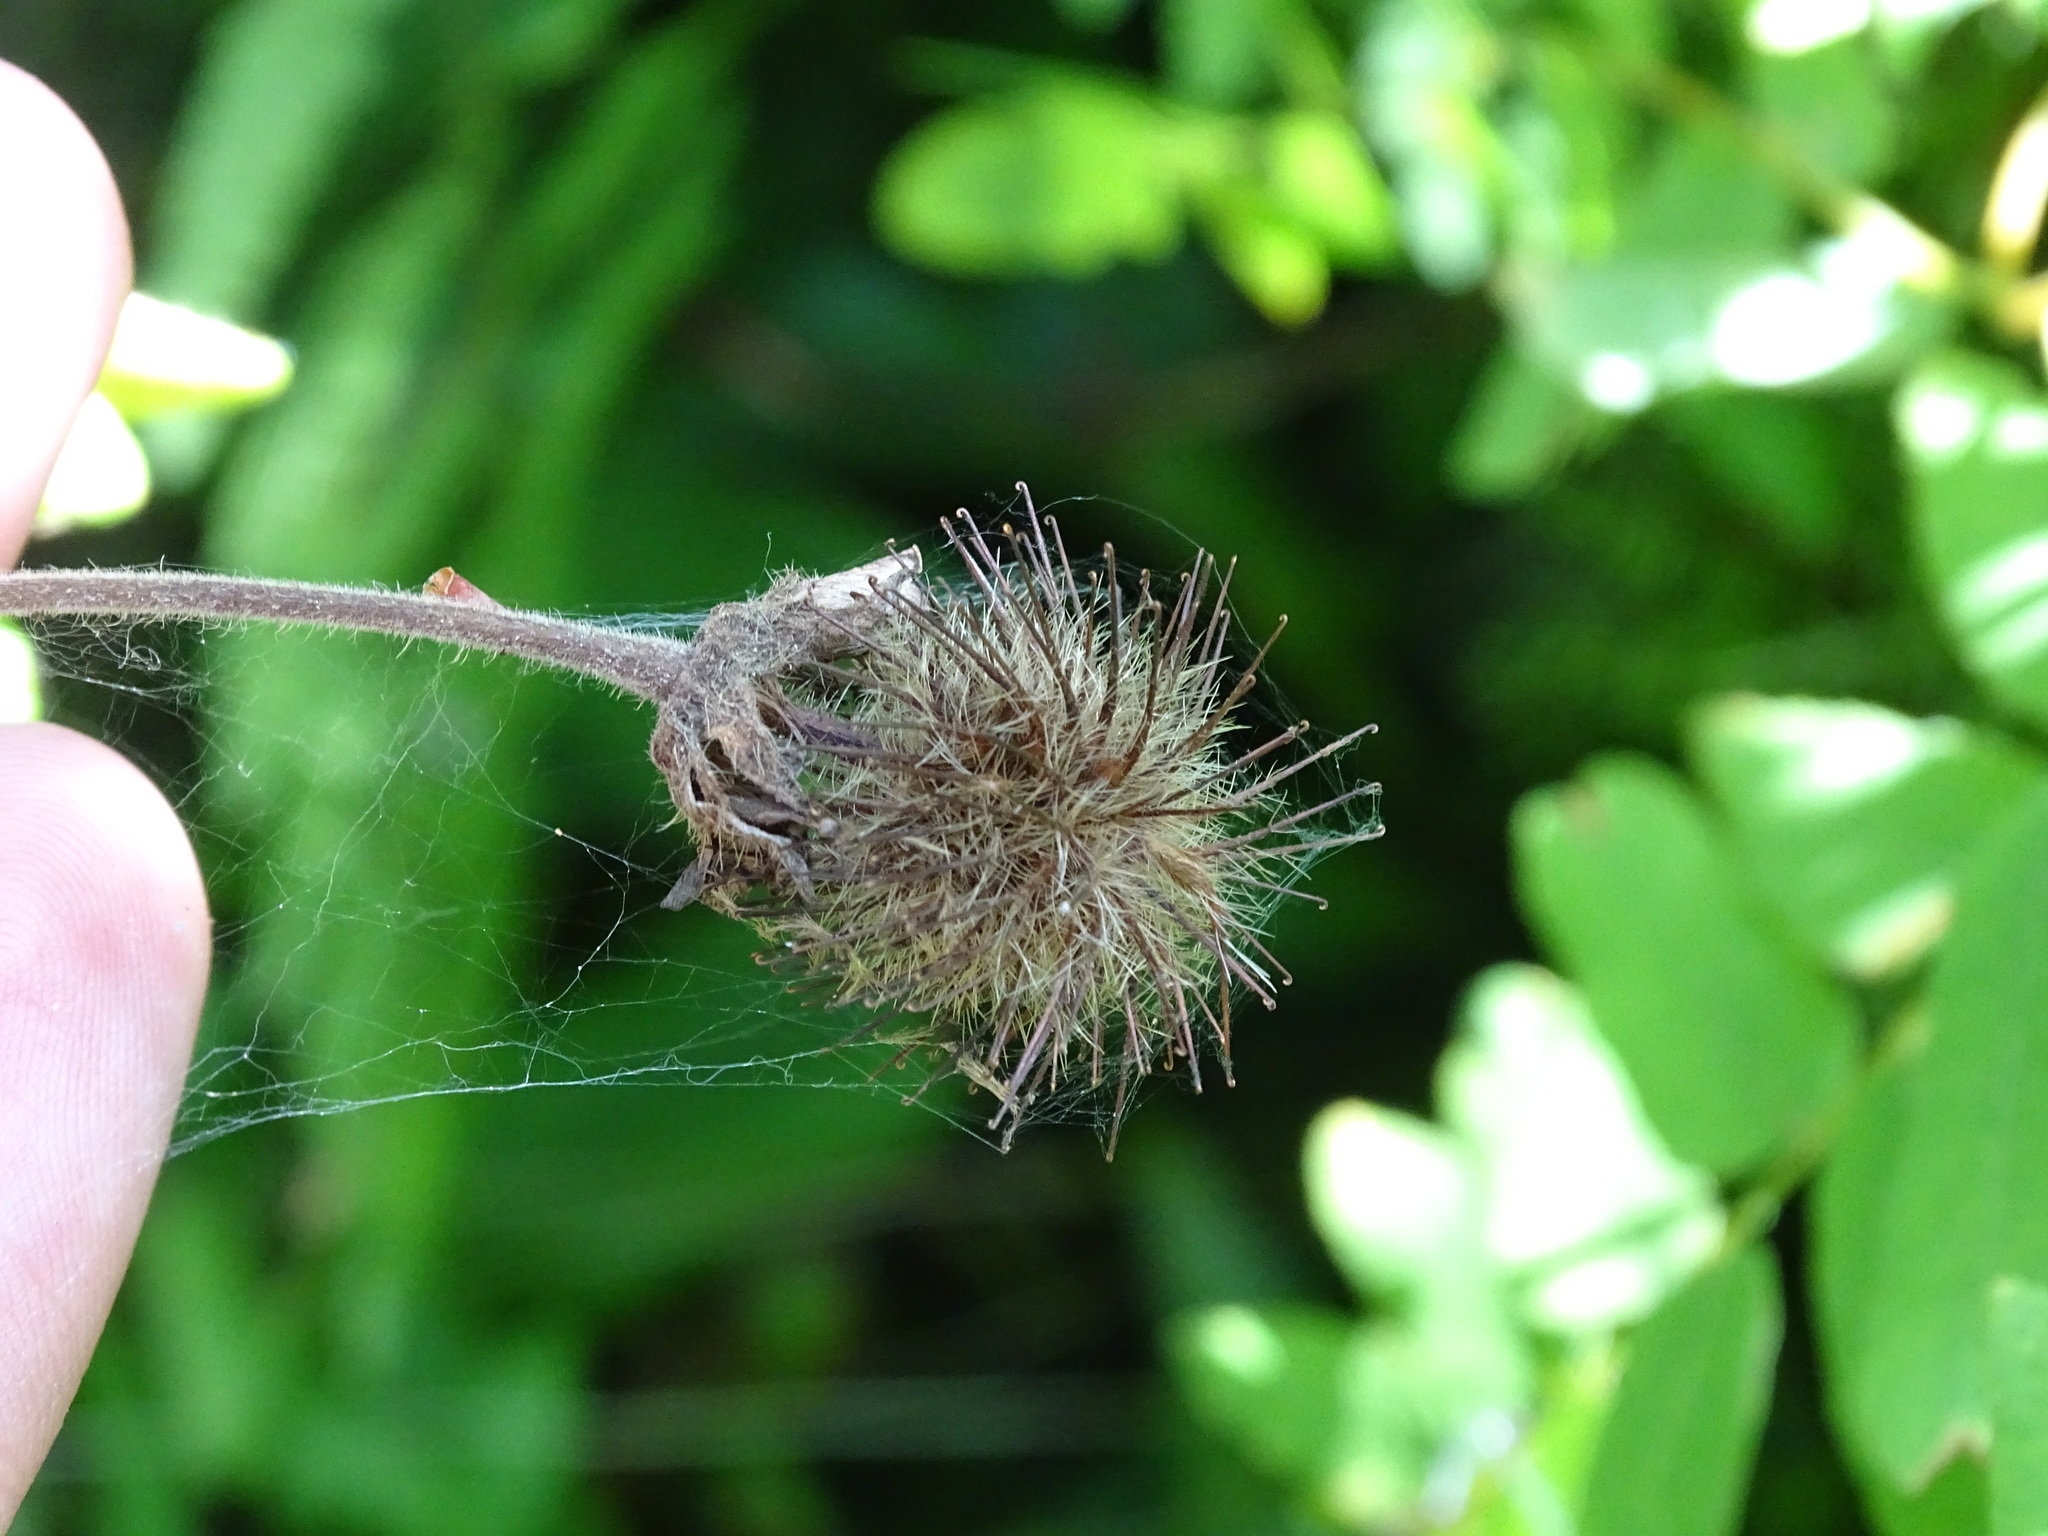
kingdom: Plantae
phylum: Tracheophyta
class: Magnoliopsida
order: Rosales
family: Rosaceae
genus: Geum
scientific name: Geum rivale
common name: Water avens
